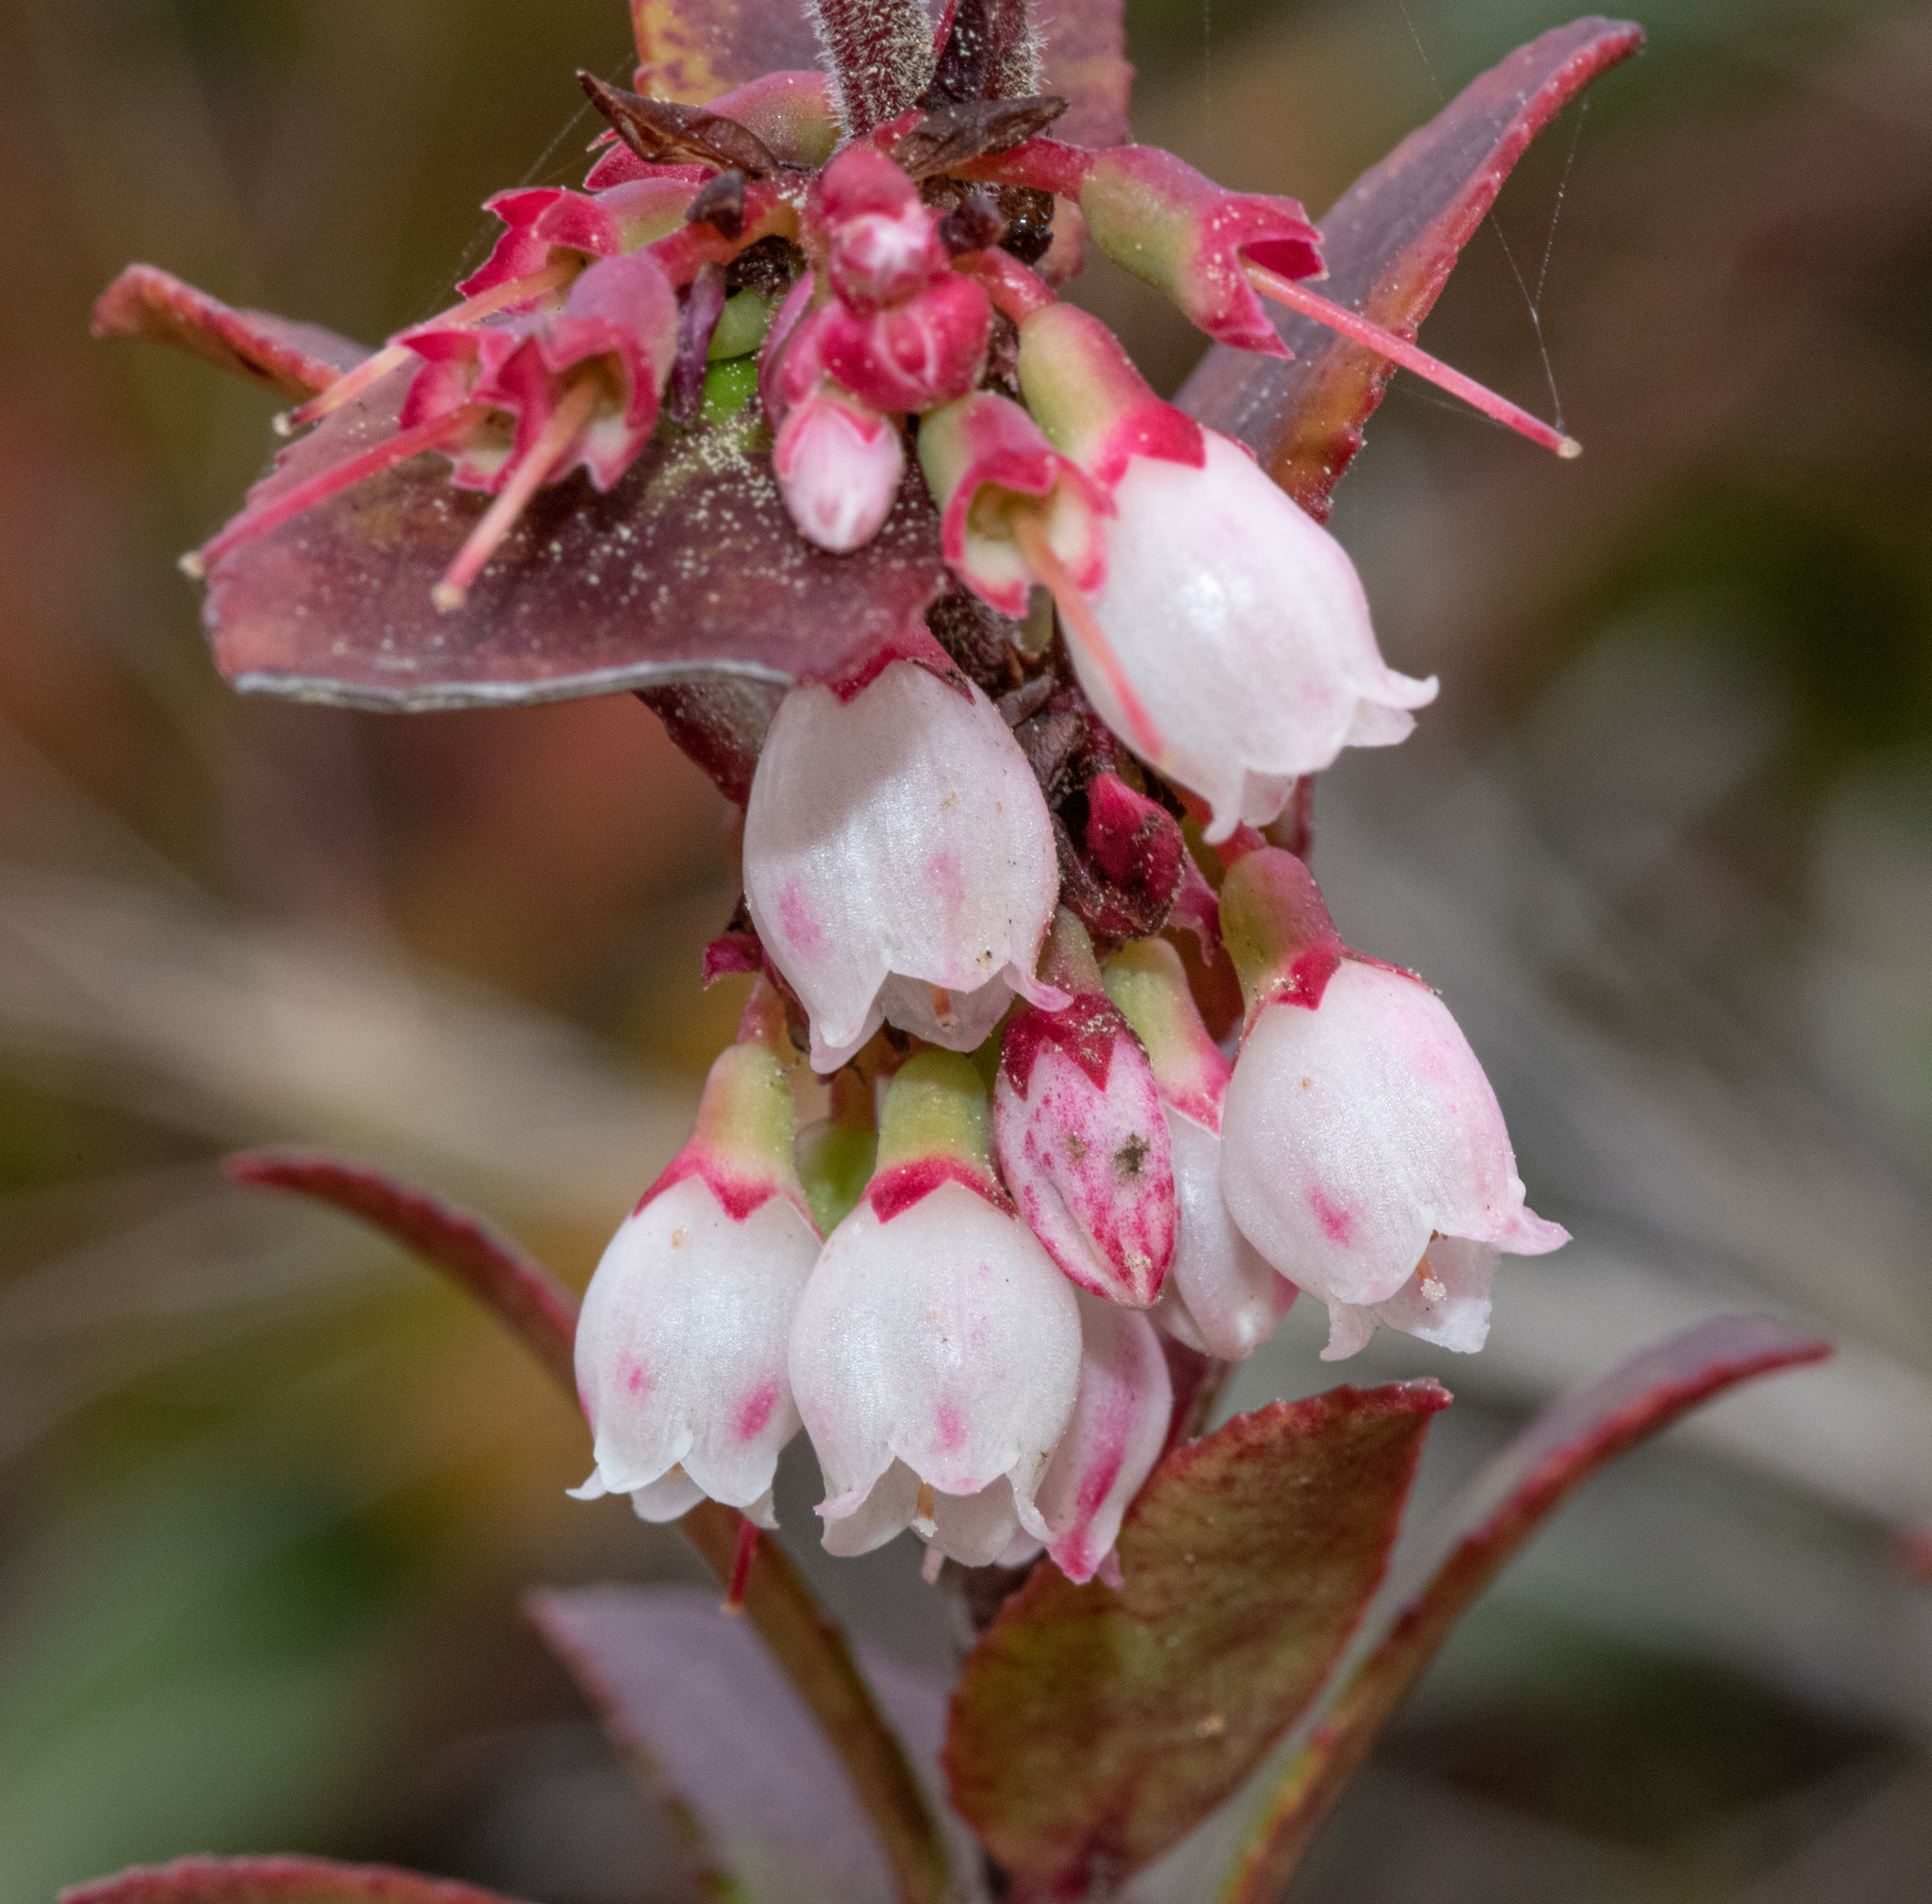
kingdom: Plantae
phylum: Tracheophyta
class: Magnoliopsida
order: Ericales
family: Ericaceae
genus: Vaccinium
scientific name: Vaccinium ovatum
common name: California-huckleberry
